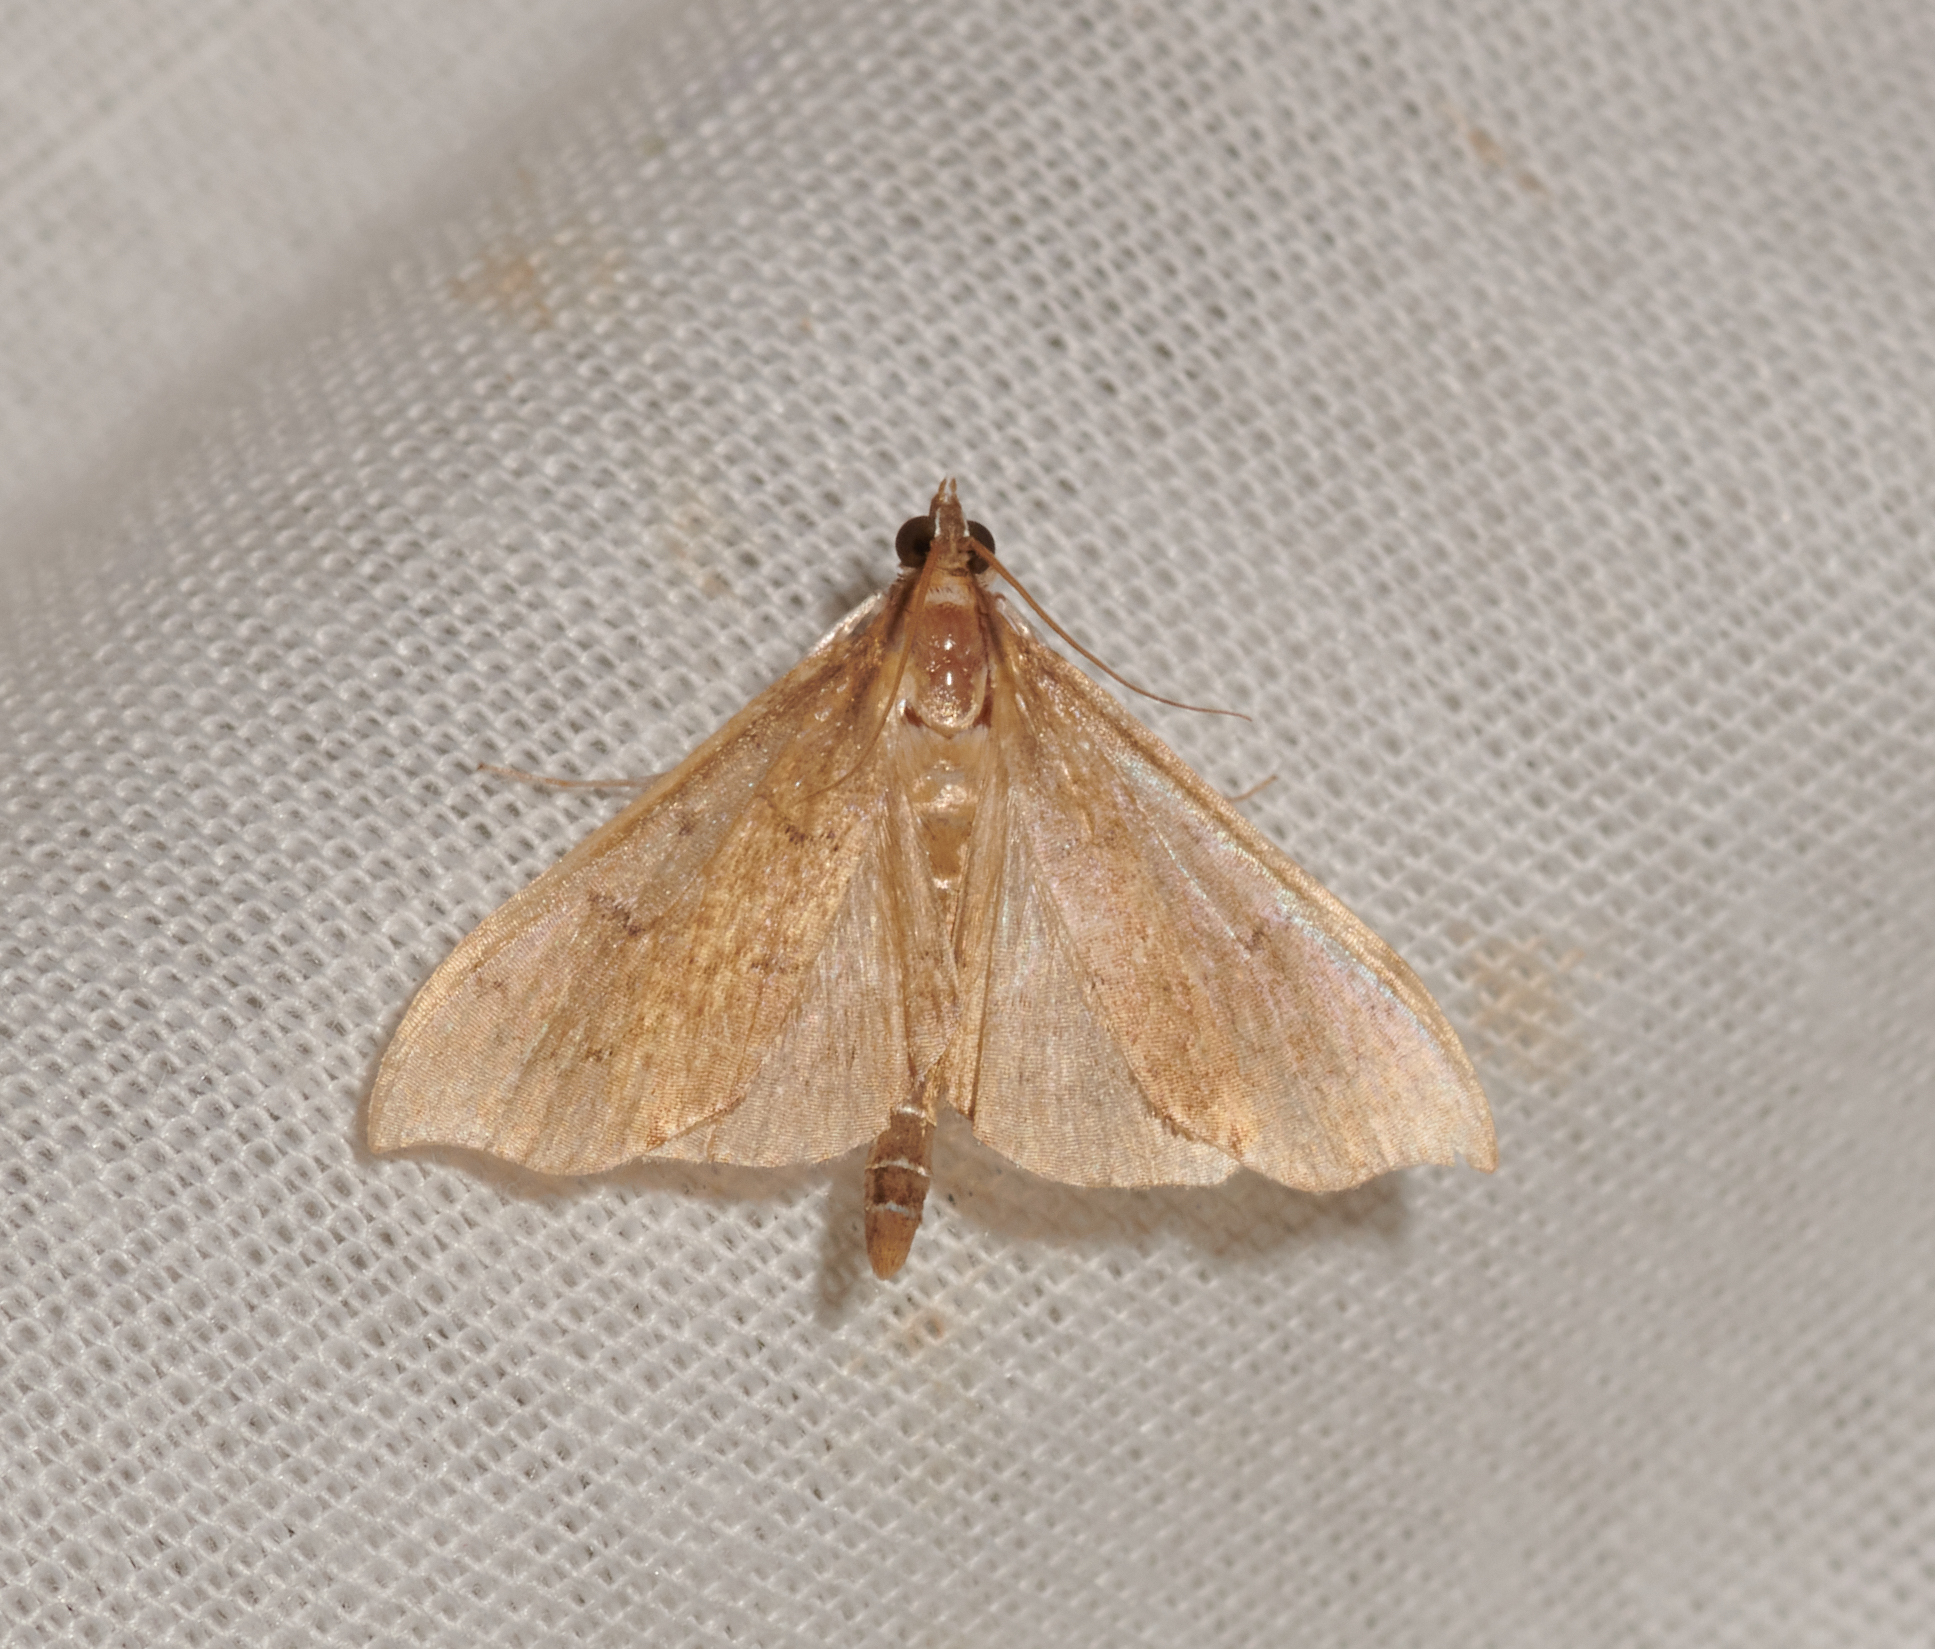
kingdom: Animalia
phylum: Arthropoda
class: Insecta
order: Lepidoptera
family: Crambidae
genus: Sericoplaga
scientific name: Sericoplaga externalis
